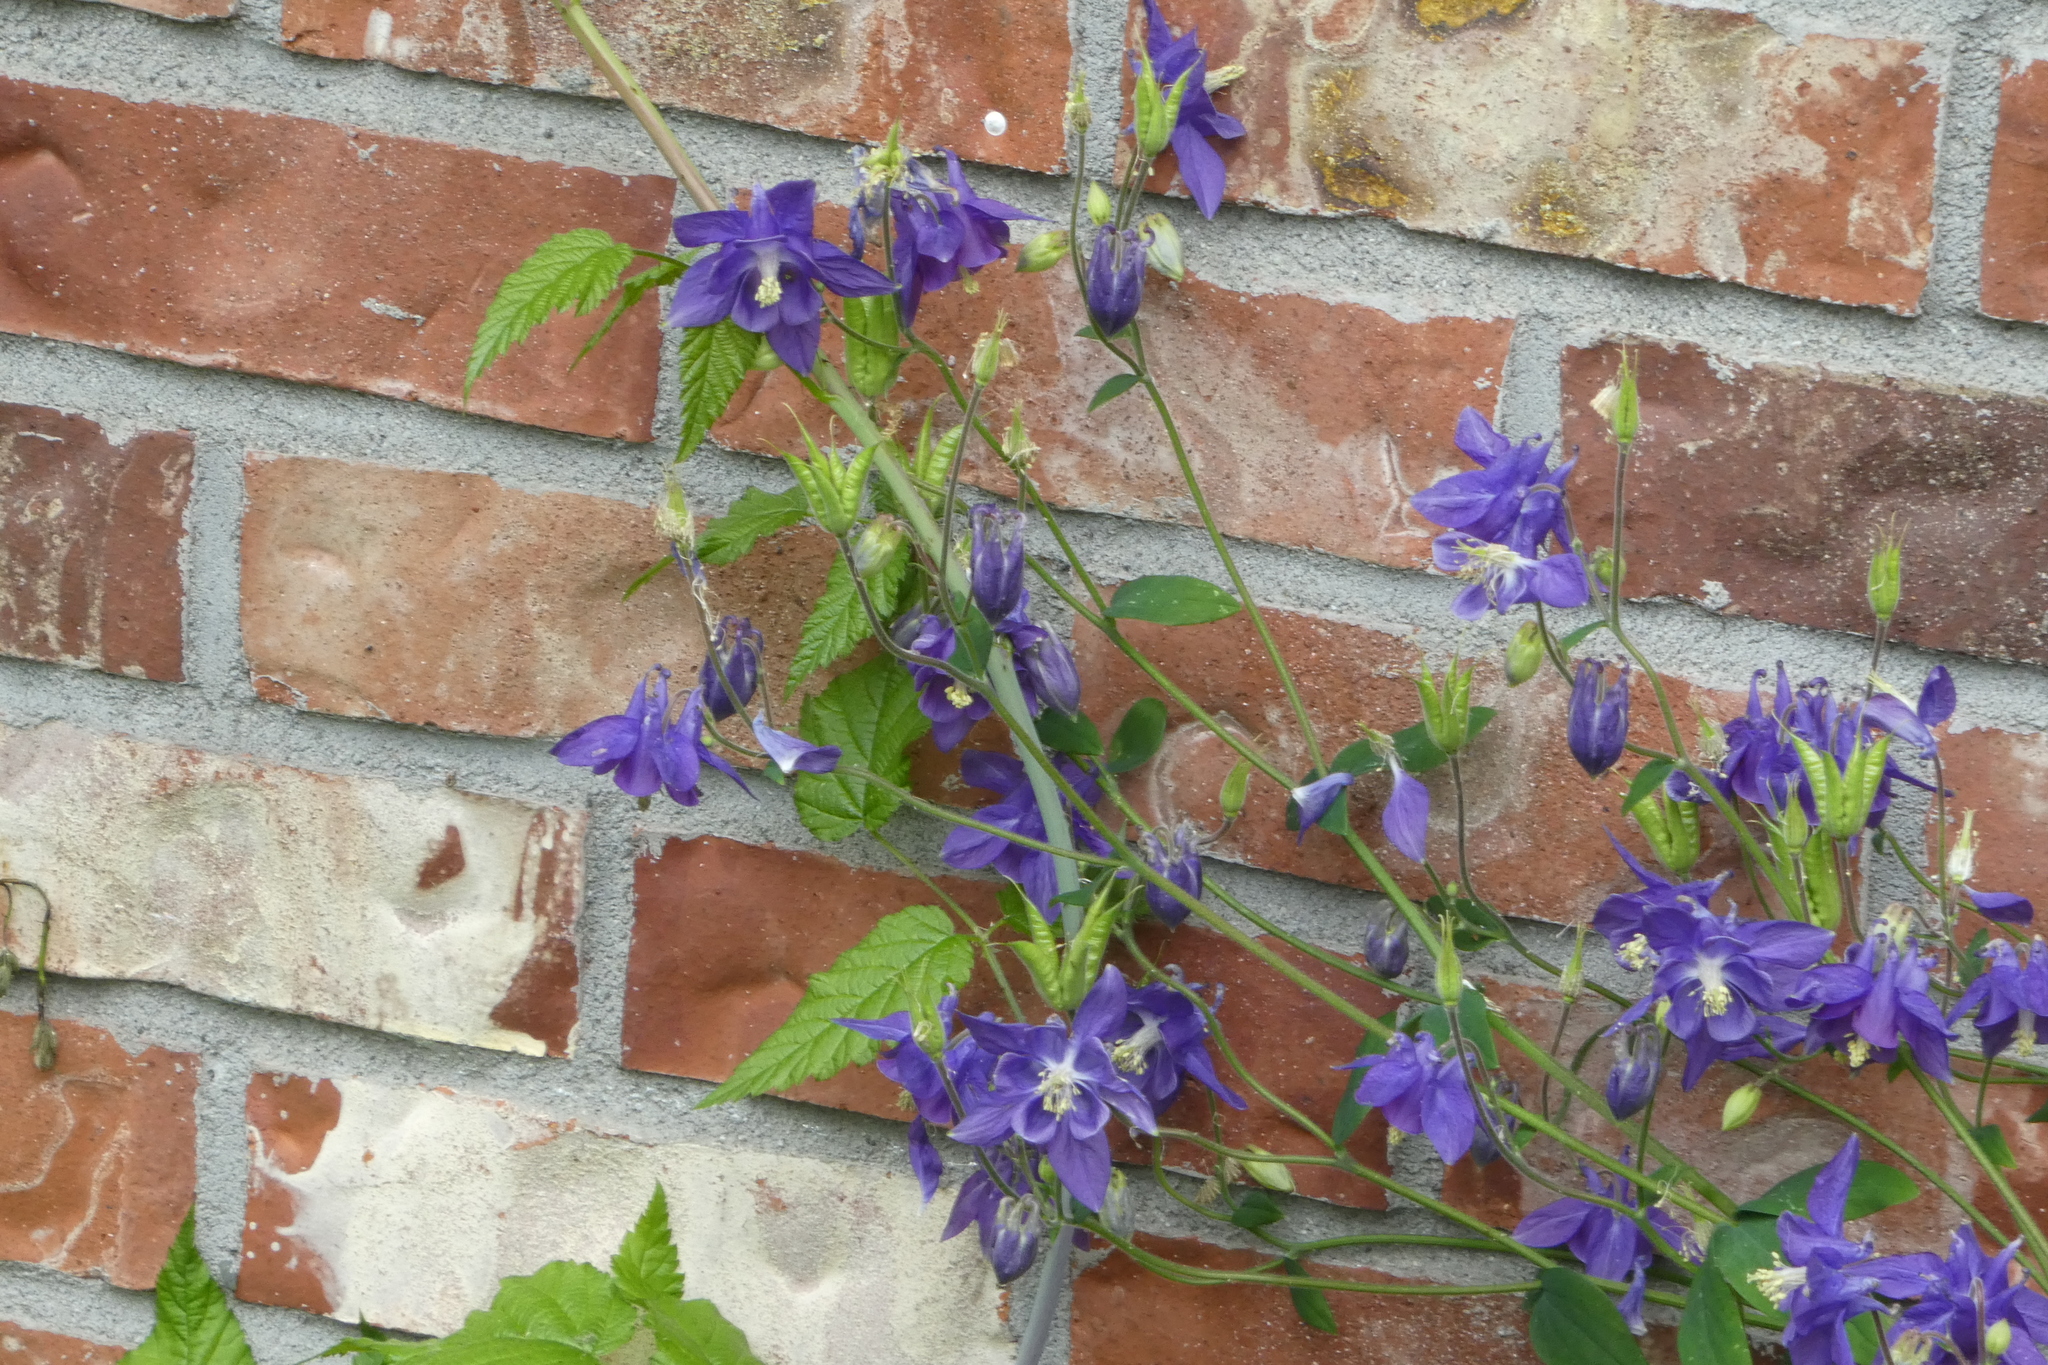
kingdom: Plantae
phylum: Tracheophyta
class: Magnoliopsida
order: Ranunculales
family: Ranunculaceae
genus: Aquilegia
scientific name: Aquilegia vulgaris
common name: Columbine
